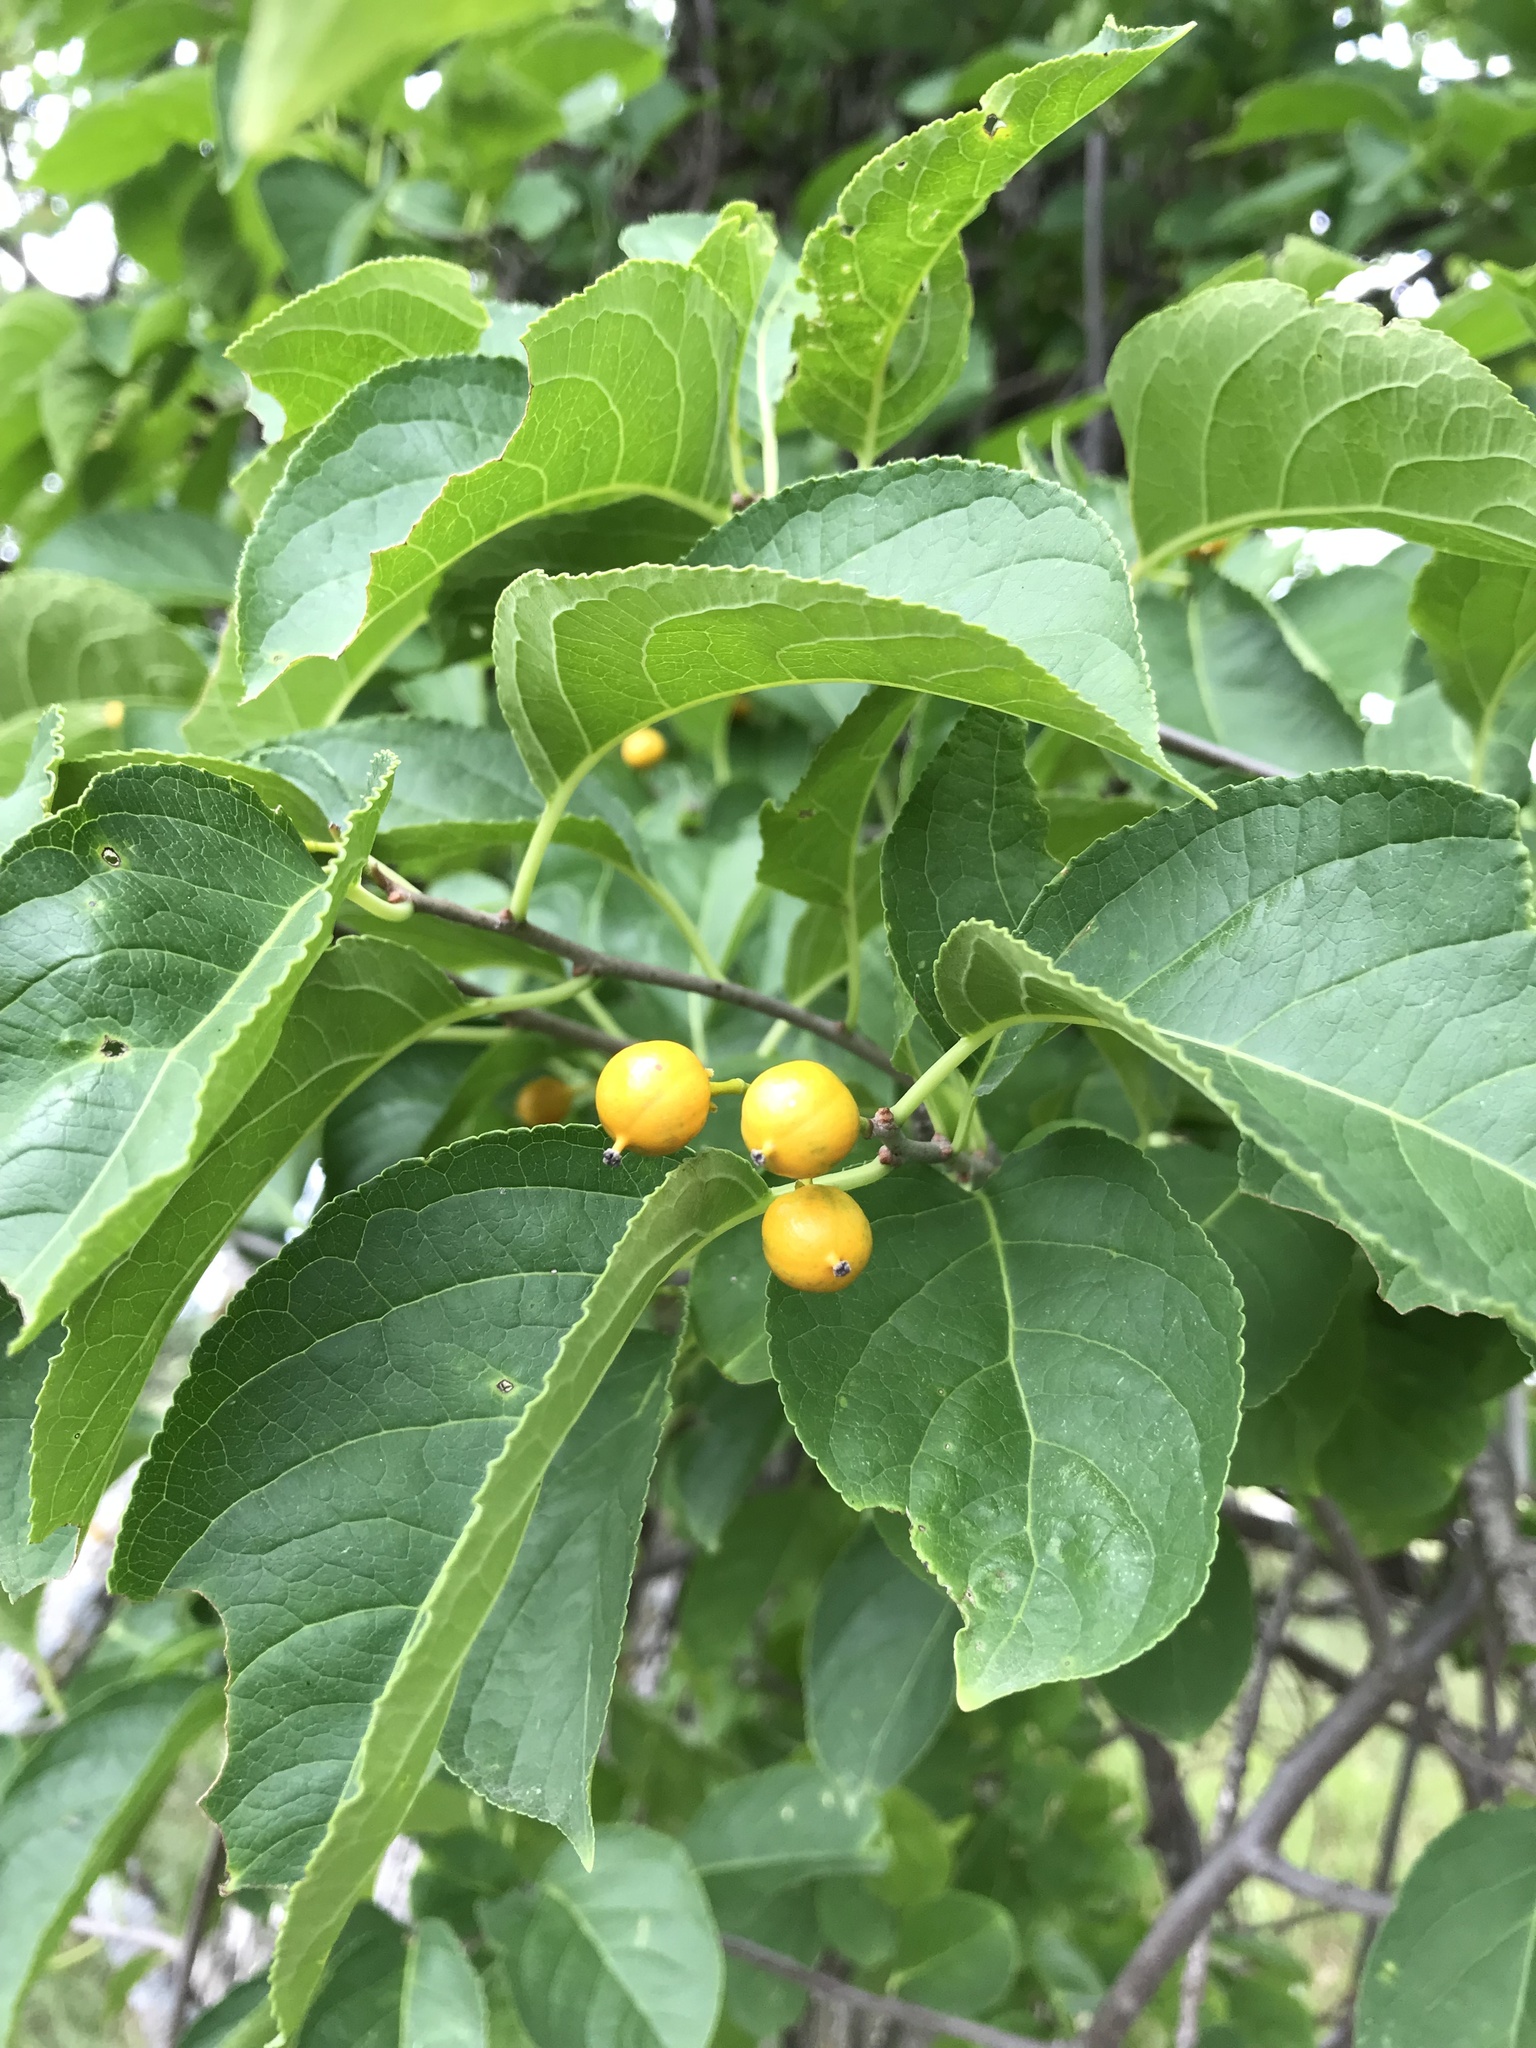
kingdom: Plantae
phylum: Tracheophyta
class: Magnoliopsida
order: Celastrales
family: Celastraceae
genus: Celastrus
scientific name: Celastrus scandens
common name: American bittersweet
